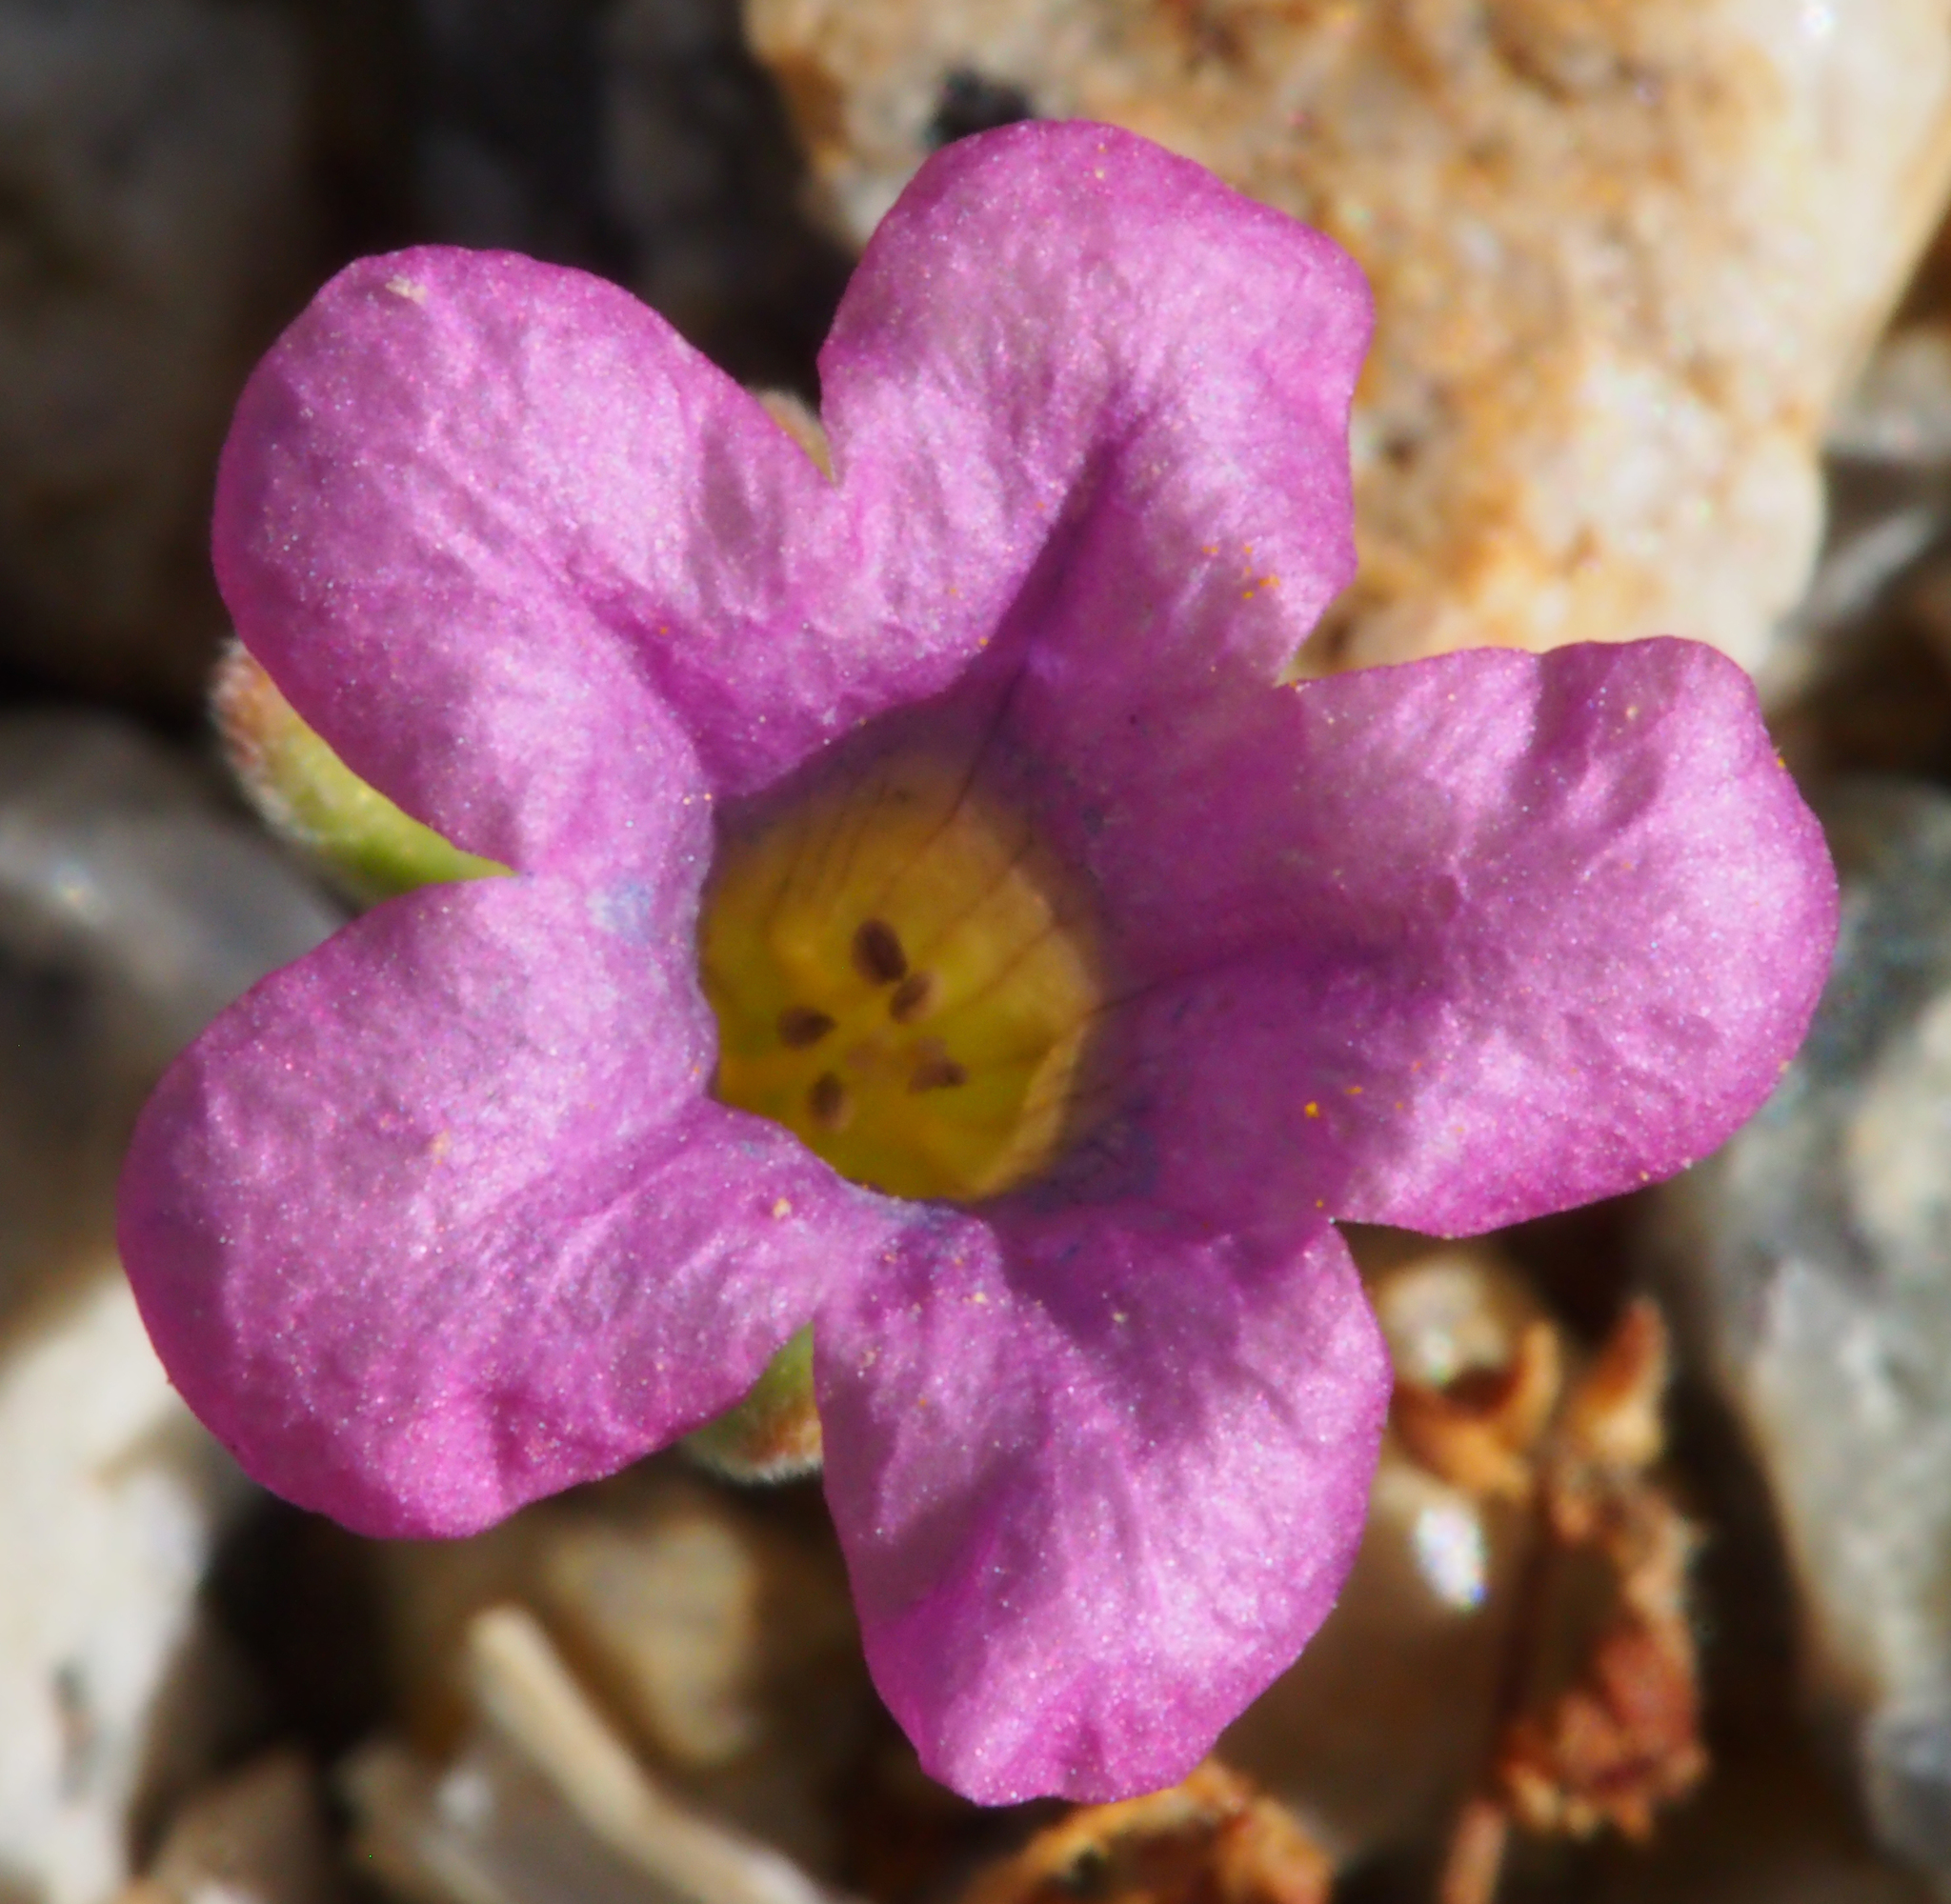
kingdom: Plantae
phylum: Tracheophyta
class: Magnoliopsida
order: Boraginales
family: Namaceae
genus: Nama
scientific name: Nama demissa
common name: Leafy nama
